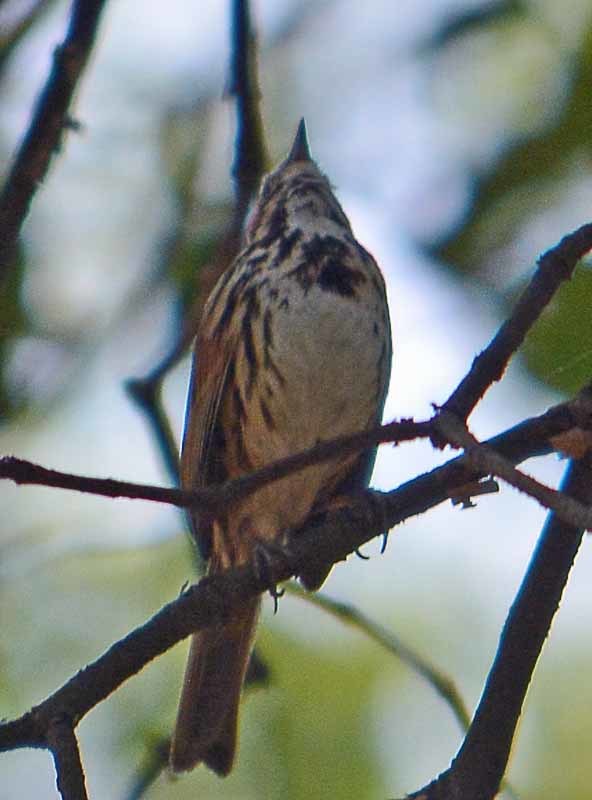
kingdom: Animalia
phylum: Chordata
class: Aves
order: Passeriformes
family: Passerellidae
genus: Melospiza
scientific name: Melospiza melodia
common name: Song sparrow
